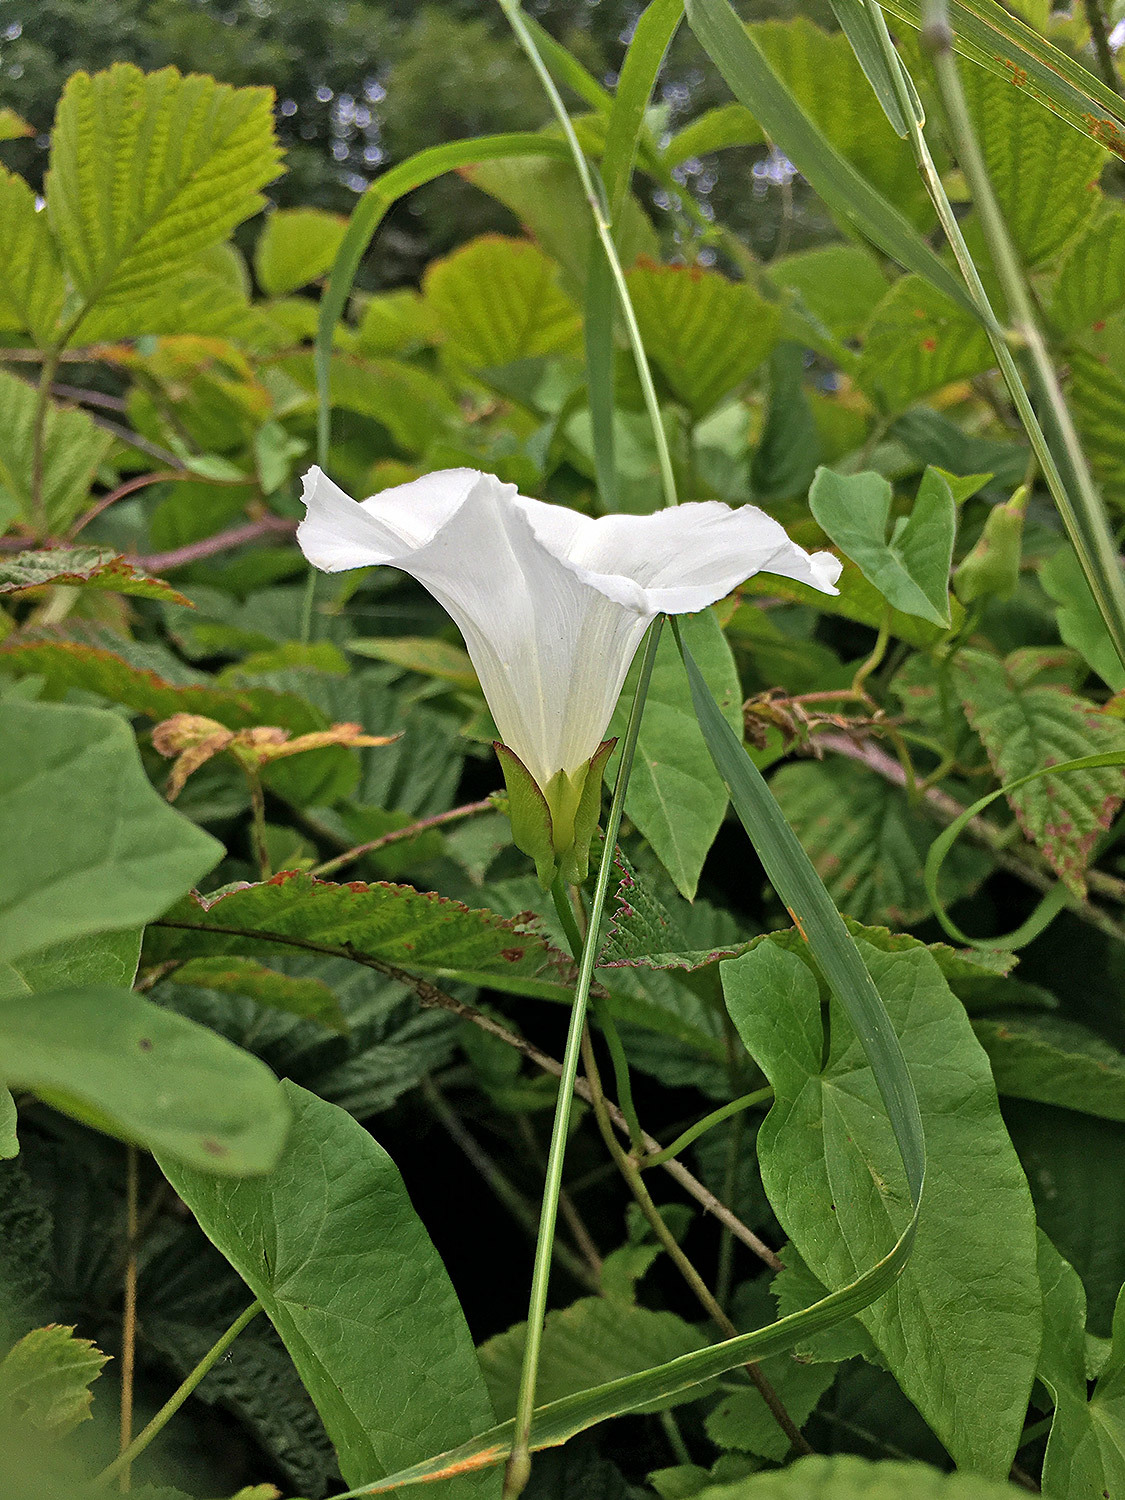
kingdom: Plantae
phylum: Tracheophyta
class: Magnoliopsida
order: Solanales
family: Convolvulaceae
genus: Calystegia
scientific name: Calystegia sepium
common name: Hedge bindweed
